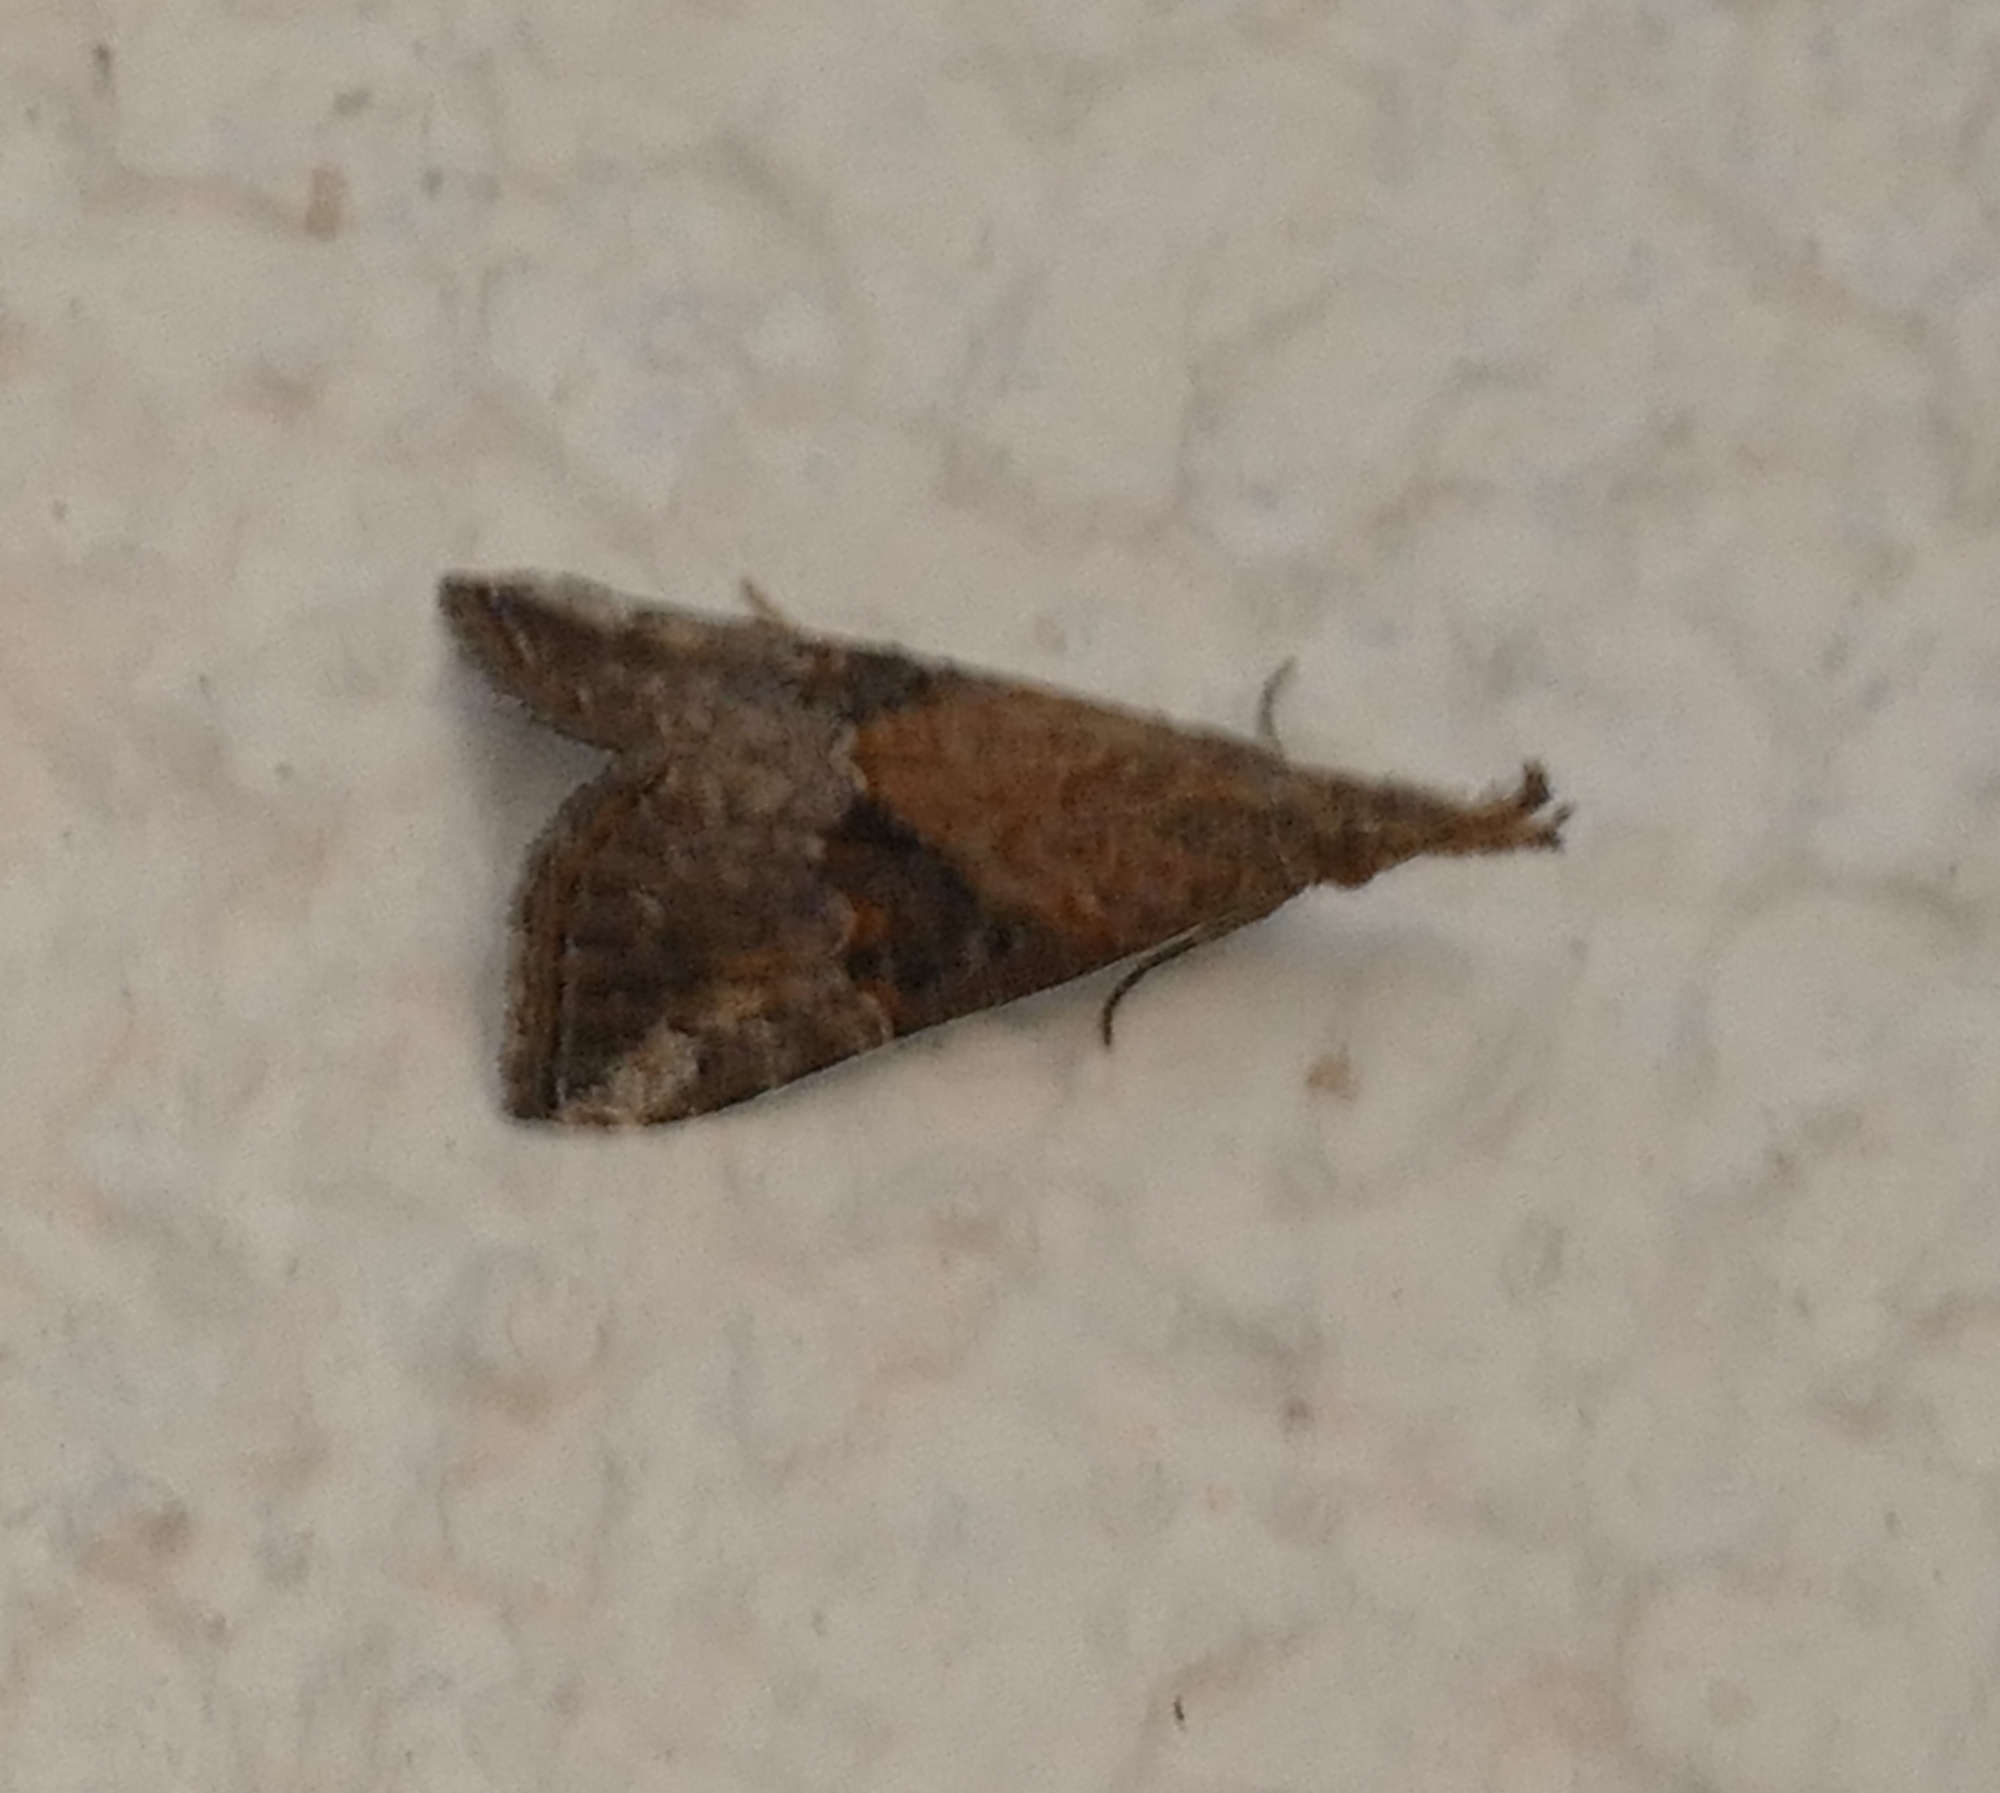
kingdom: Animalia
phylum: Arthropoda
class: Insecta
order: Lepidoptera
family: Erebidae
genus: Hypena
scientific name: Hypena minualis
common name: Sooty snout
